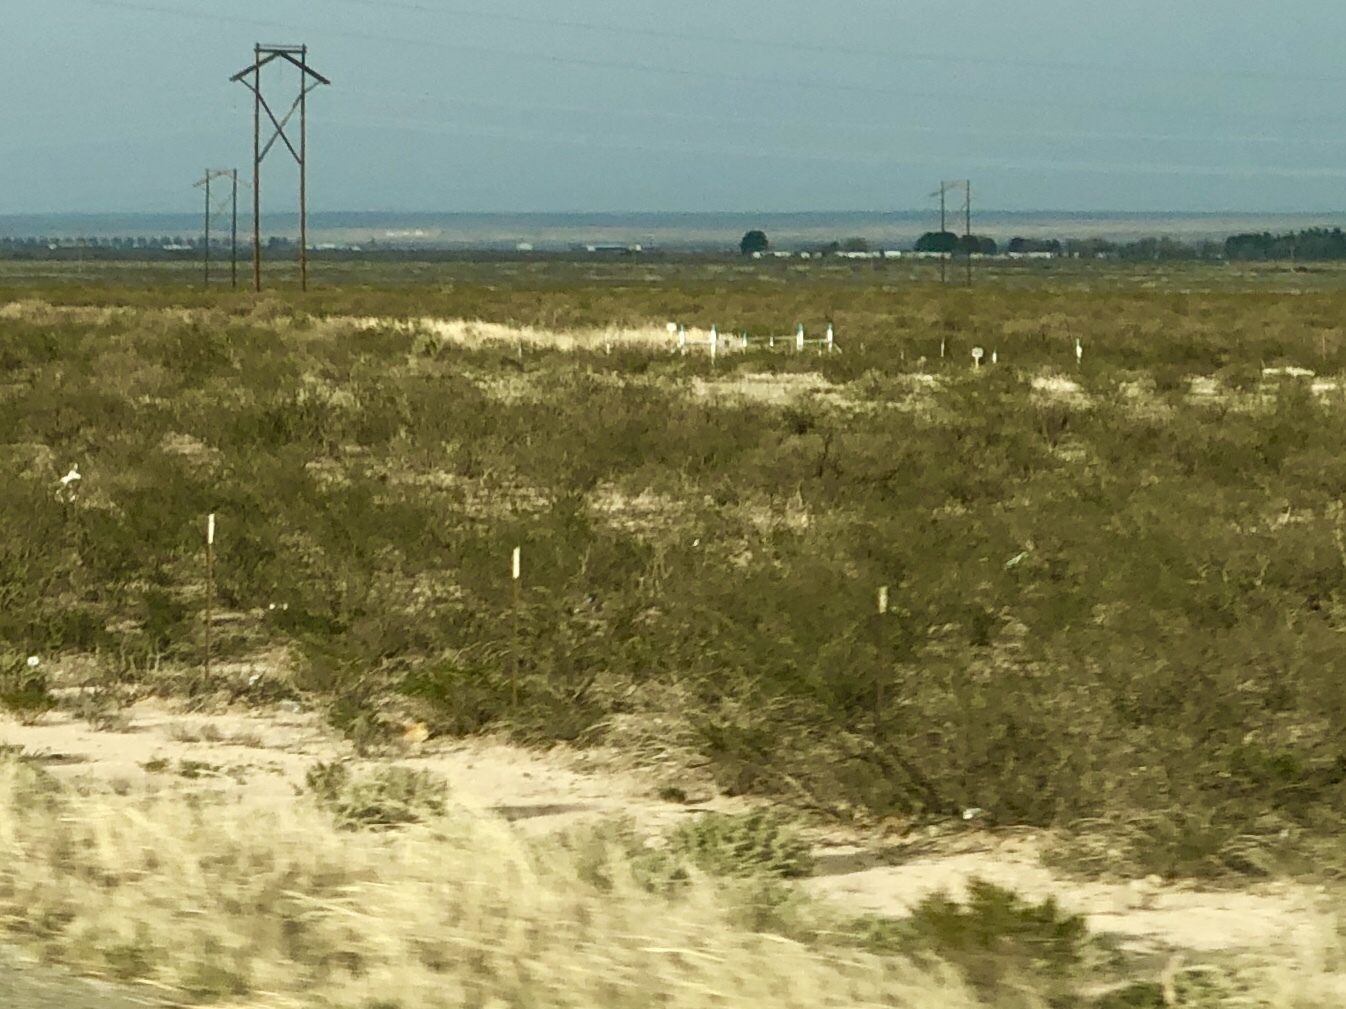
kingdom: Plantae
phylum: Tracheophyta
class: Magnoliopsida
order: Zygophyllales
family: Zygophyllaceae
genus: Larrea
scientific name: Larrea tridentata
